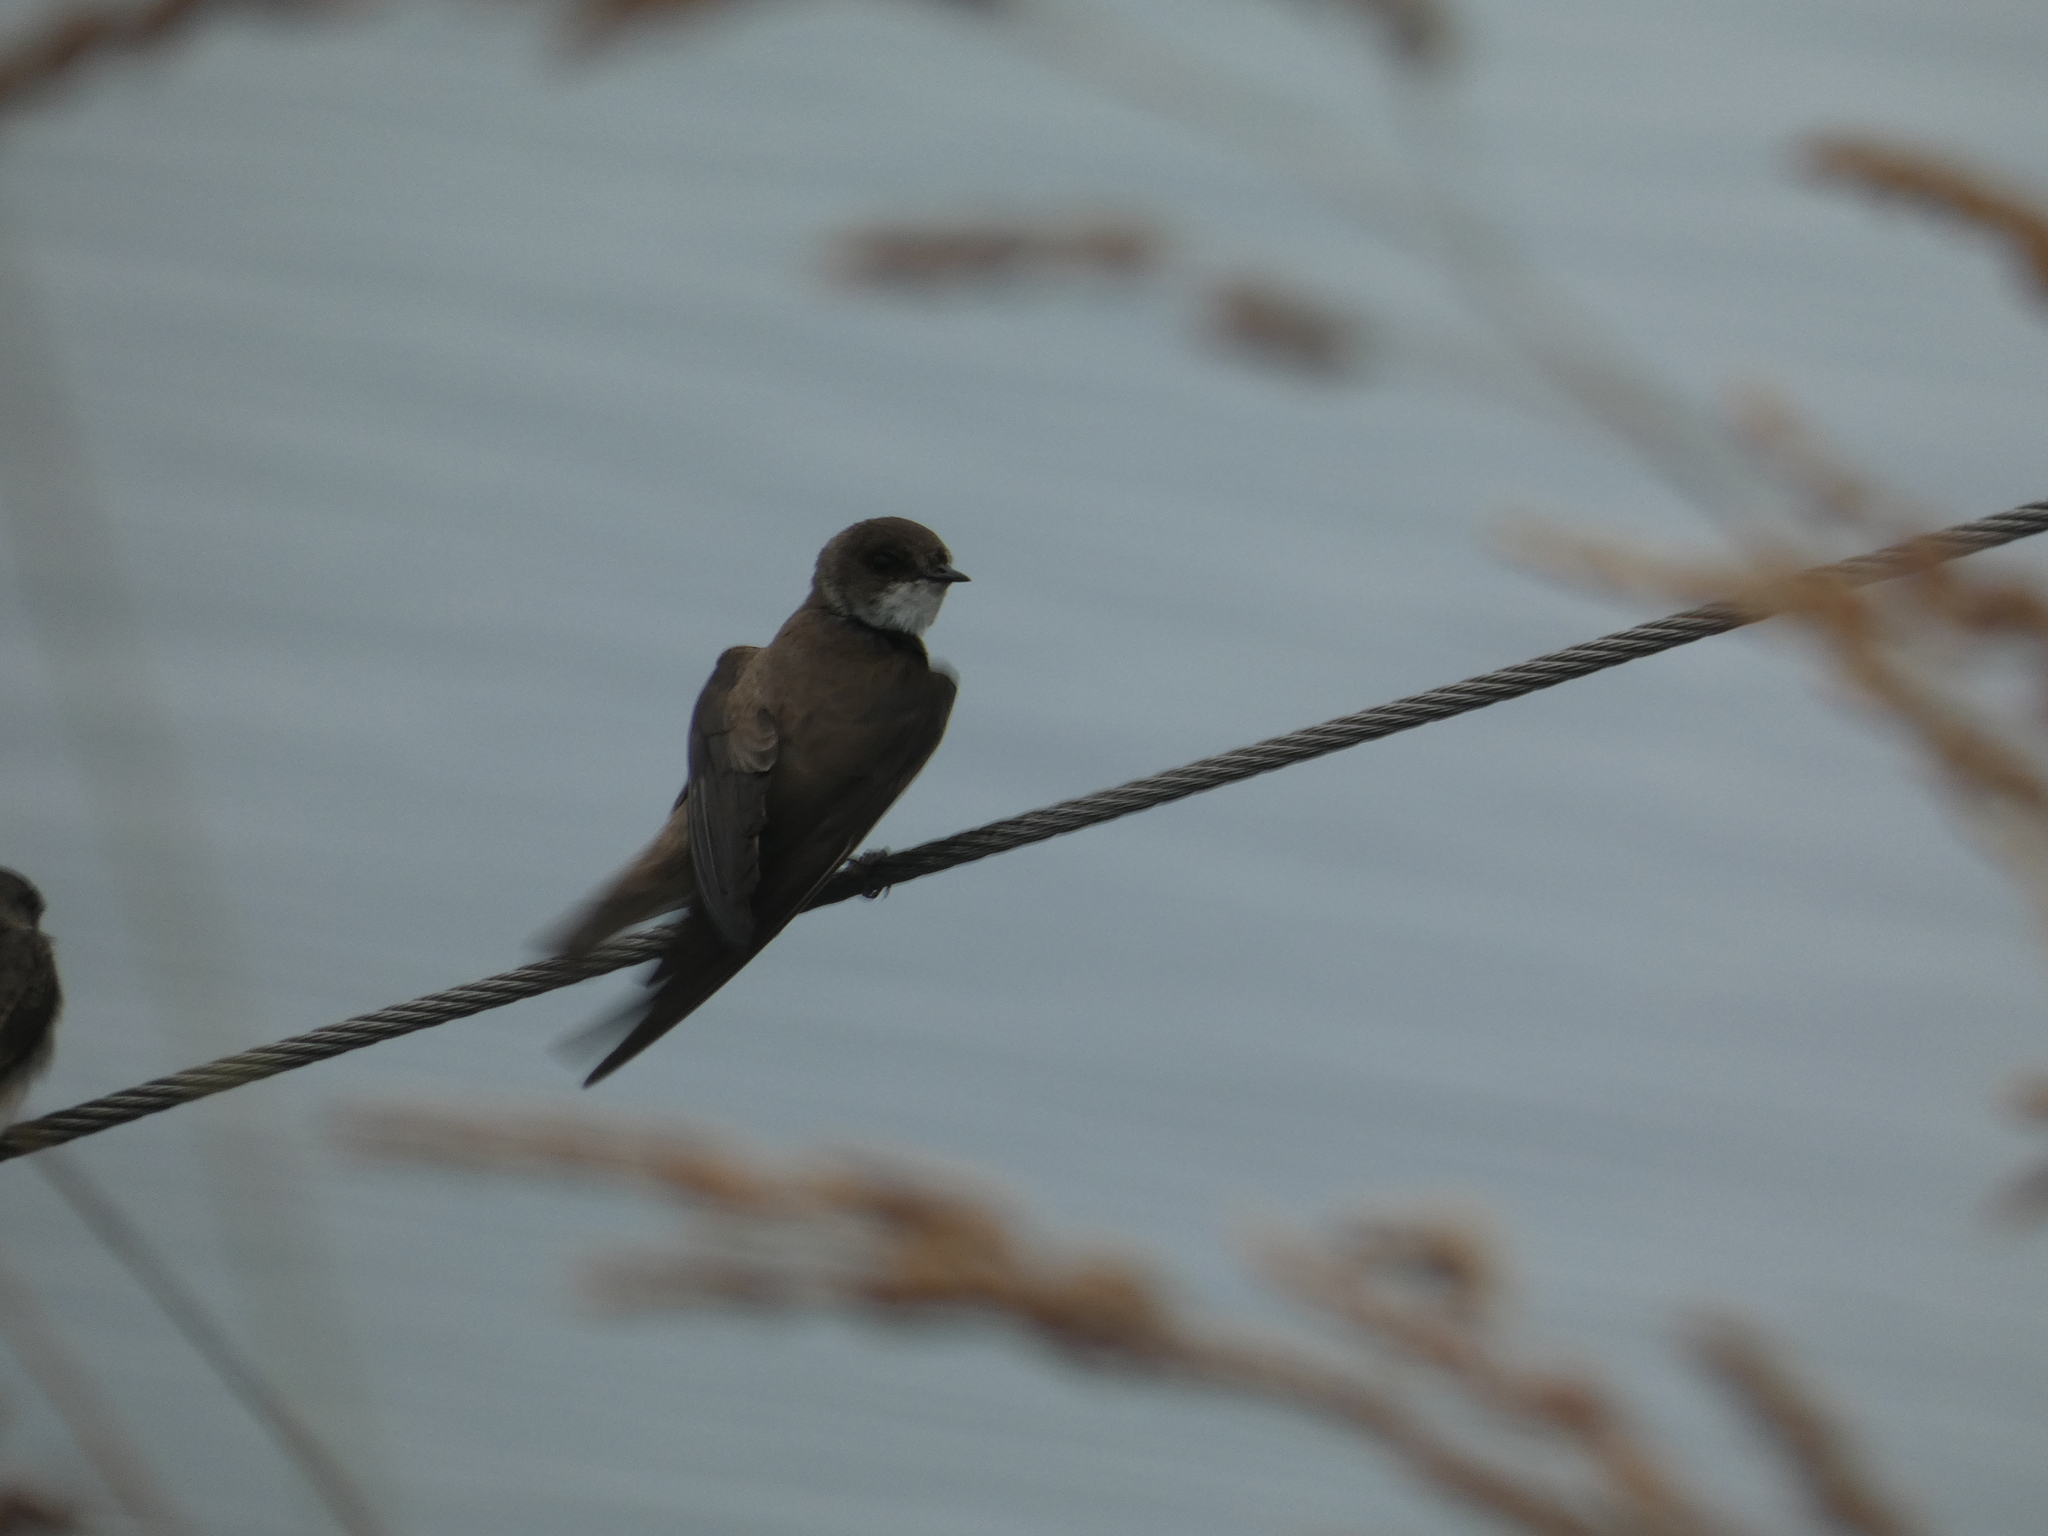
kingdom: Animalia
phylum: Chordata
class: Aves
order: Passeriformes
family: Hirundinidae
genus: Riparia
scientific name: Riparia riparia
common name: Sand martin
